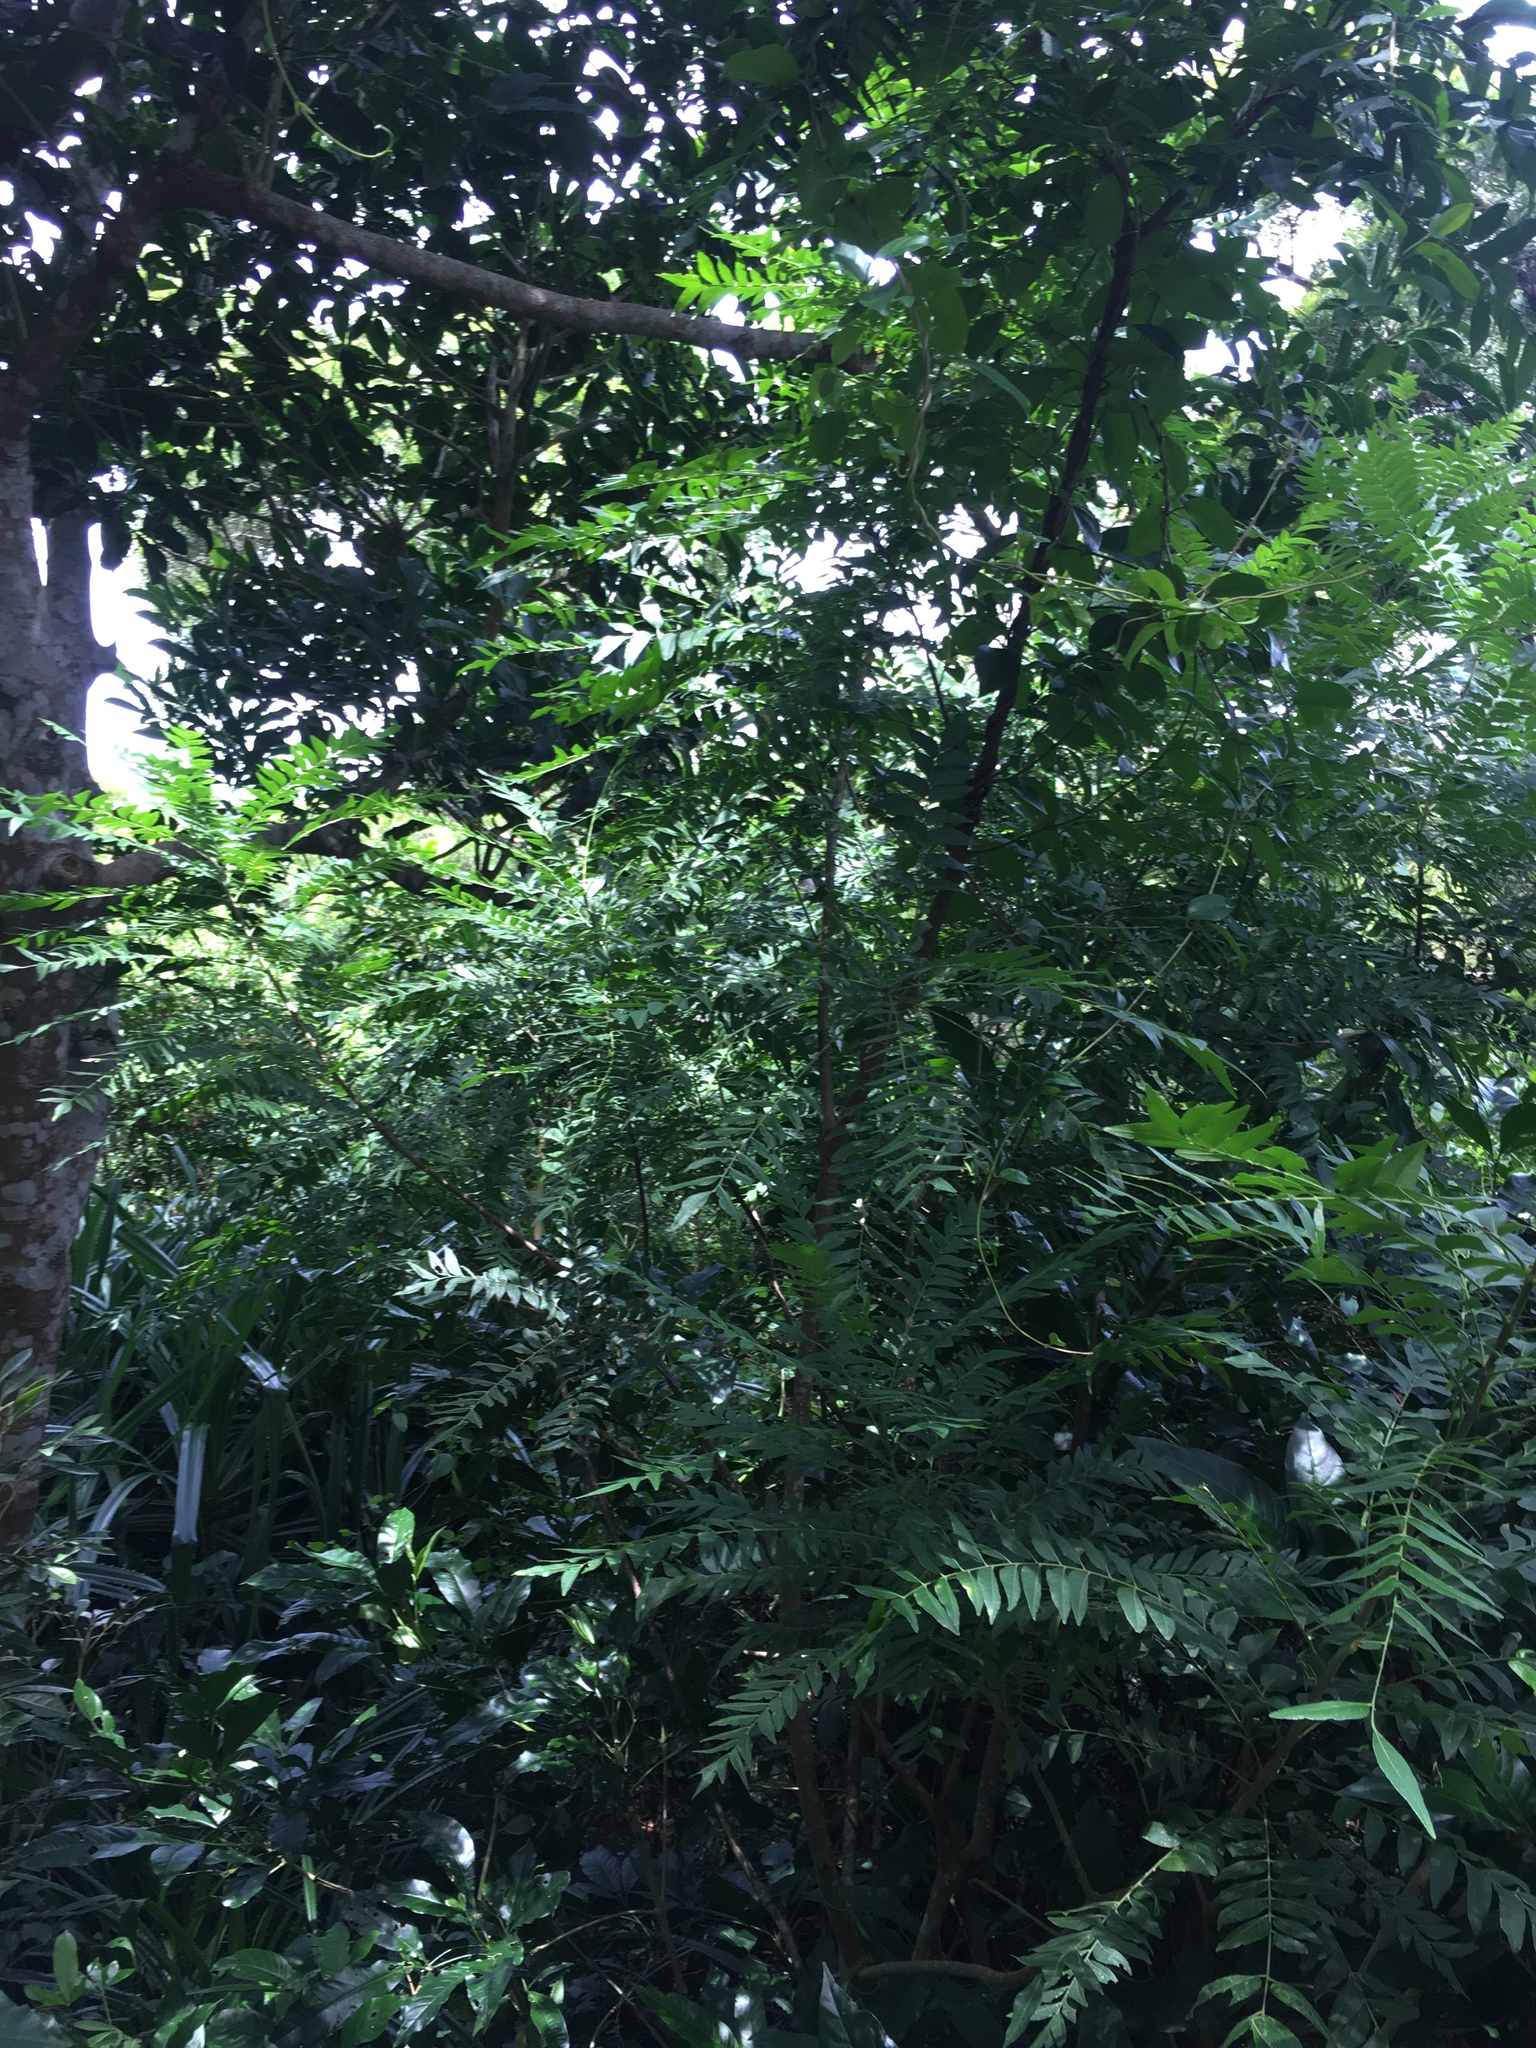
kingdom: Plantae
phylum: Tracheophyta
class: Magnoliopsida
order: Sapindales
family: Rutaceae
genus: Clausena
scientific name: Clausena excavata
